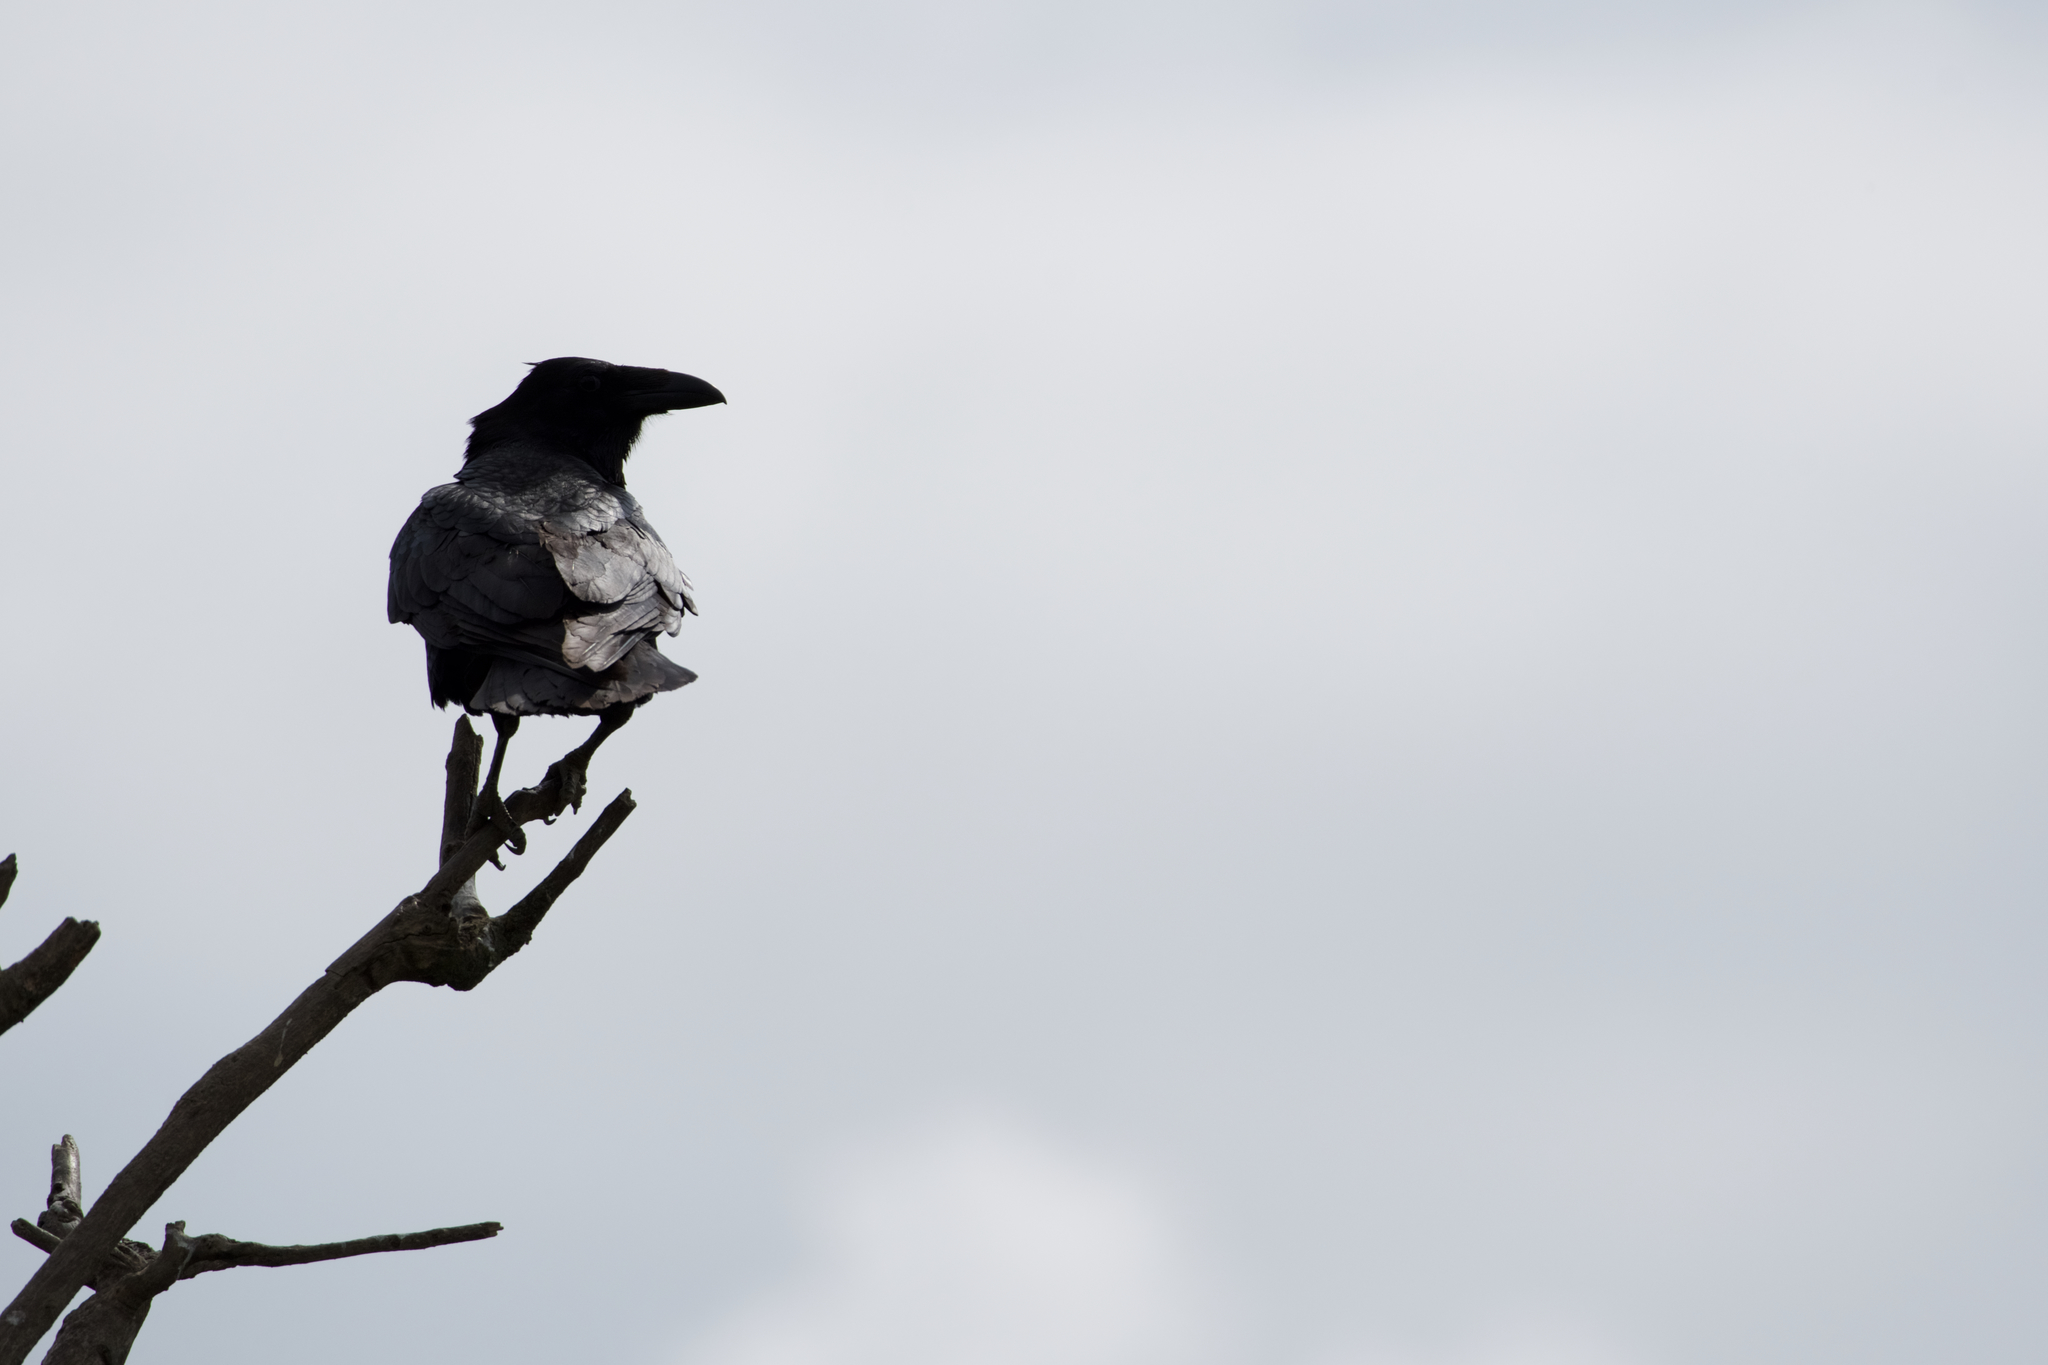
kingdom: Animalia
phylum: Chordata
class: Aves
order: Passeriformes
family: Corvidae
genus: Corvus
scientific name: Corvus corax
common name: Common raven
